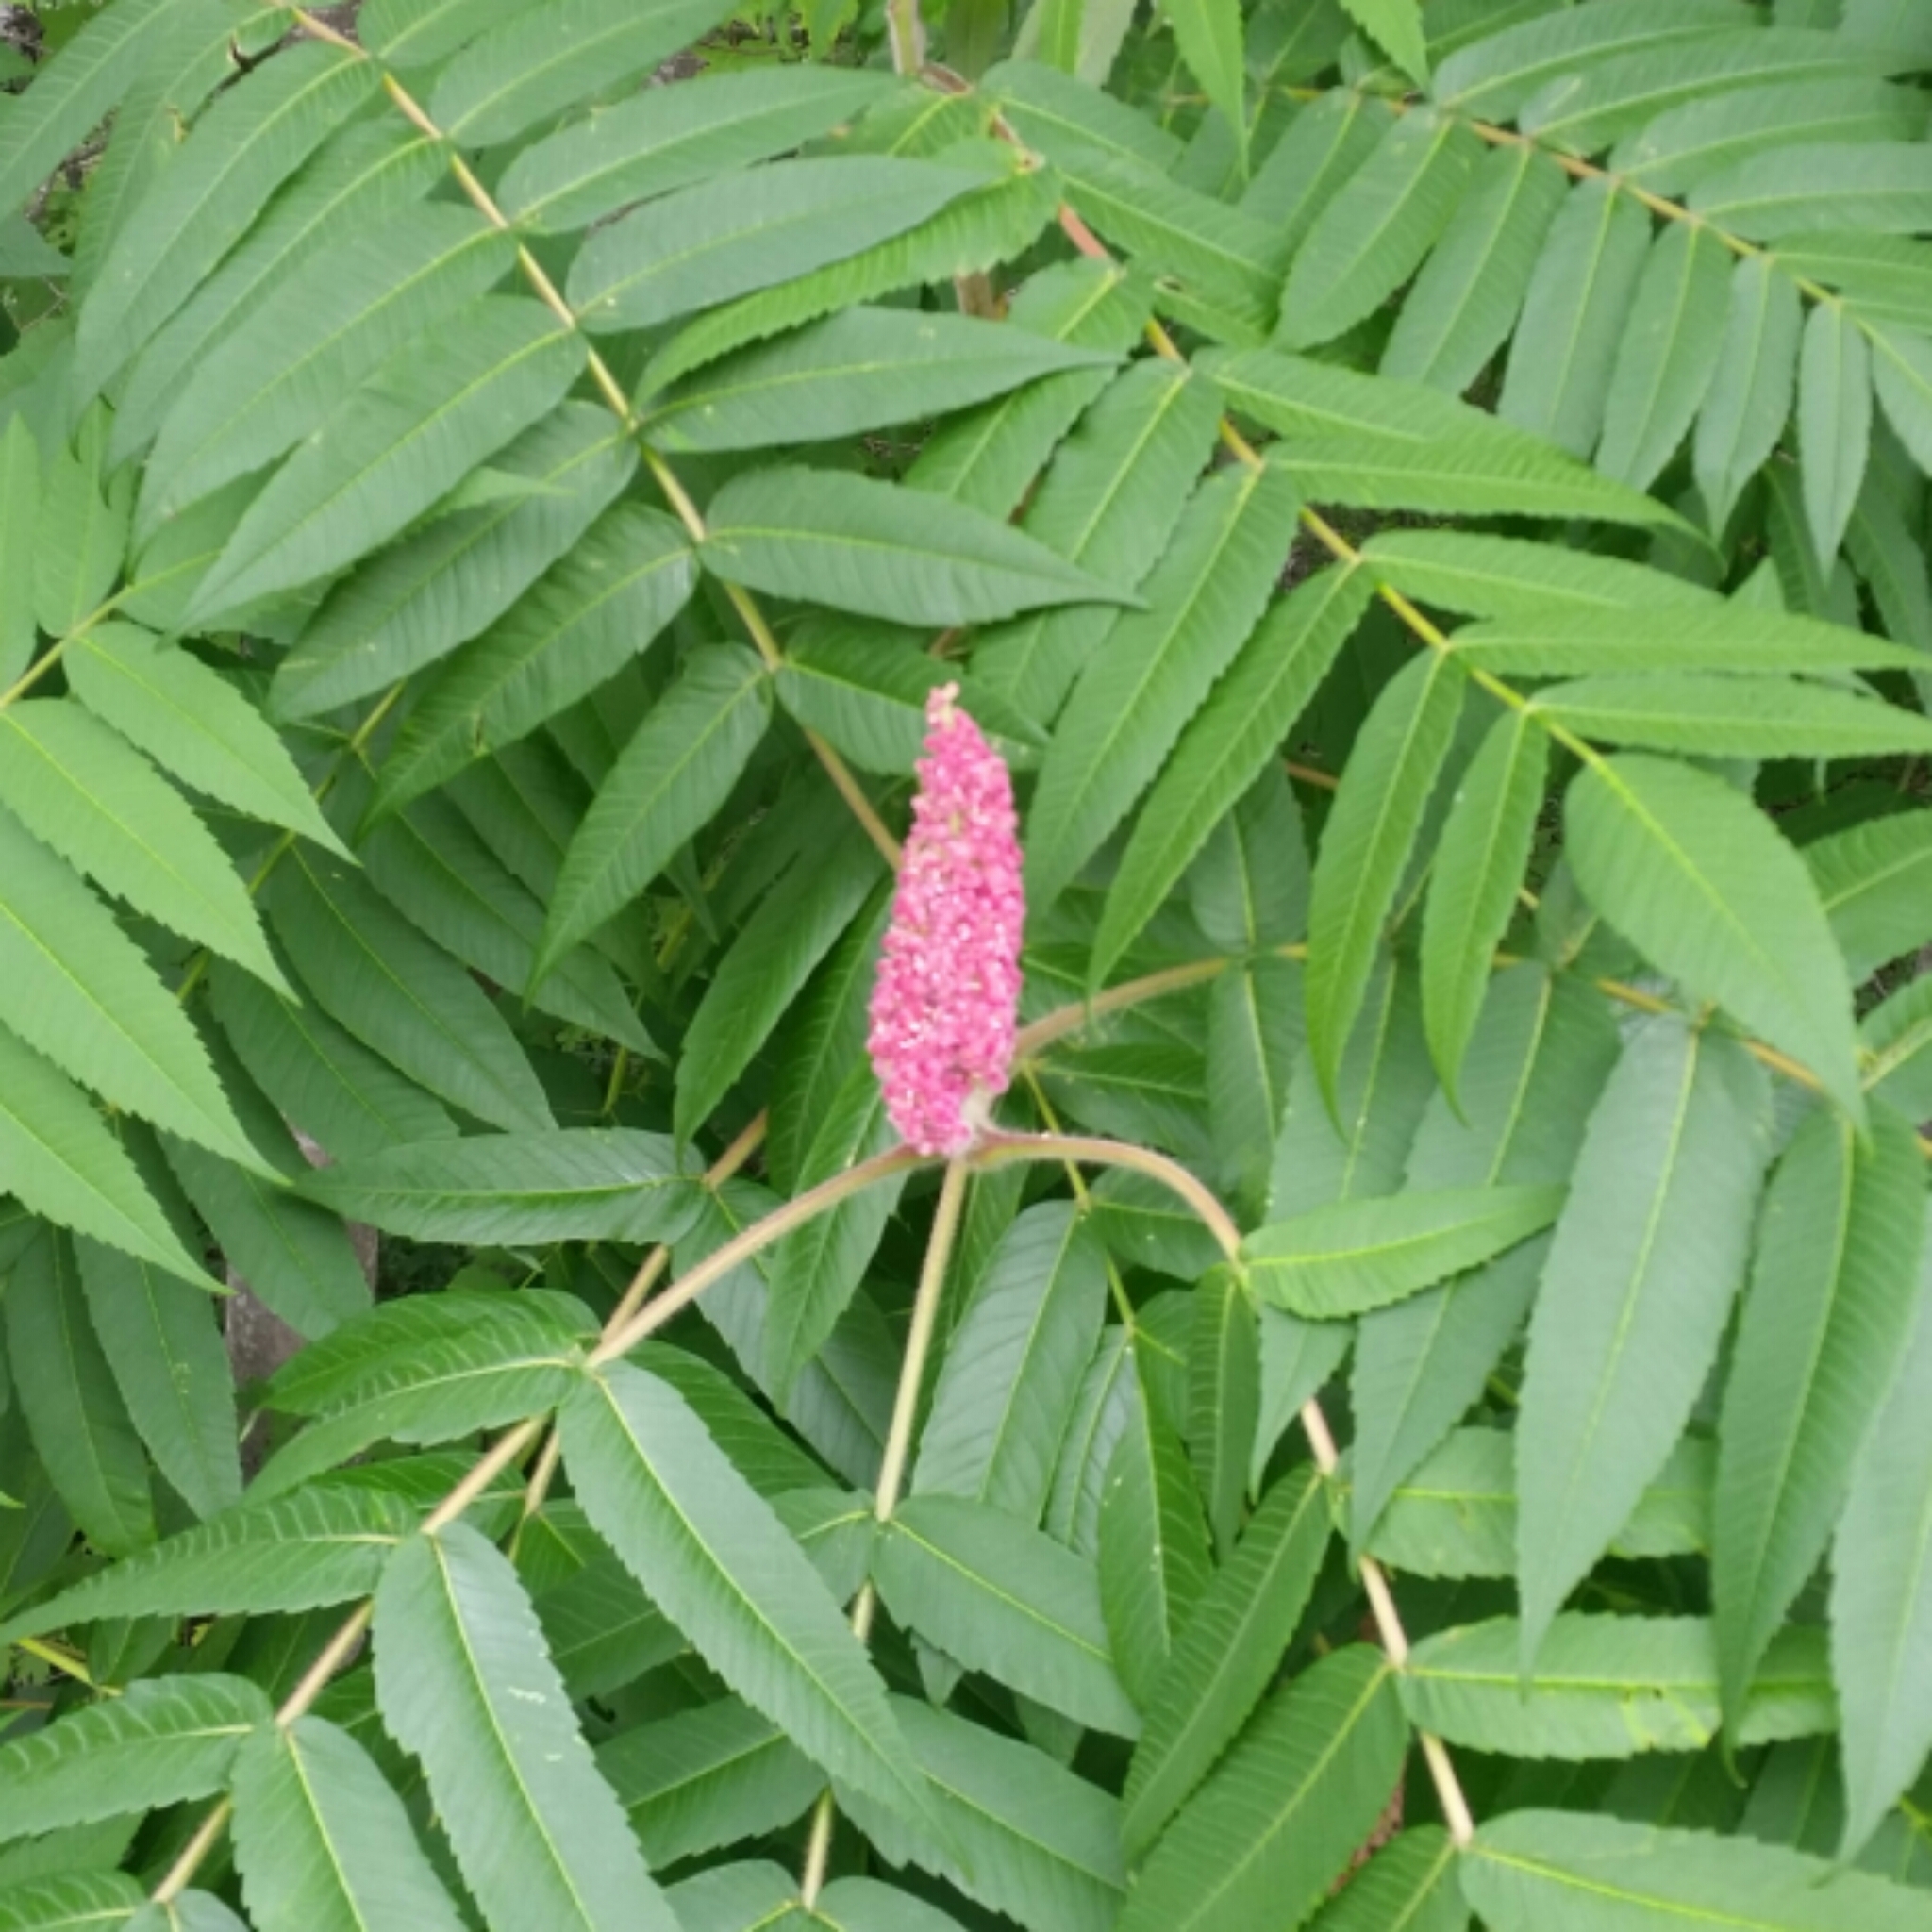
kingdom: Plantae
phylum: Tracheophyta
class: Magnoliopsida
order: Sapindales
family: Anacardiaceae
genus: Rhus
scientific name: Rhus typhina
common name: Staghorn sumac
